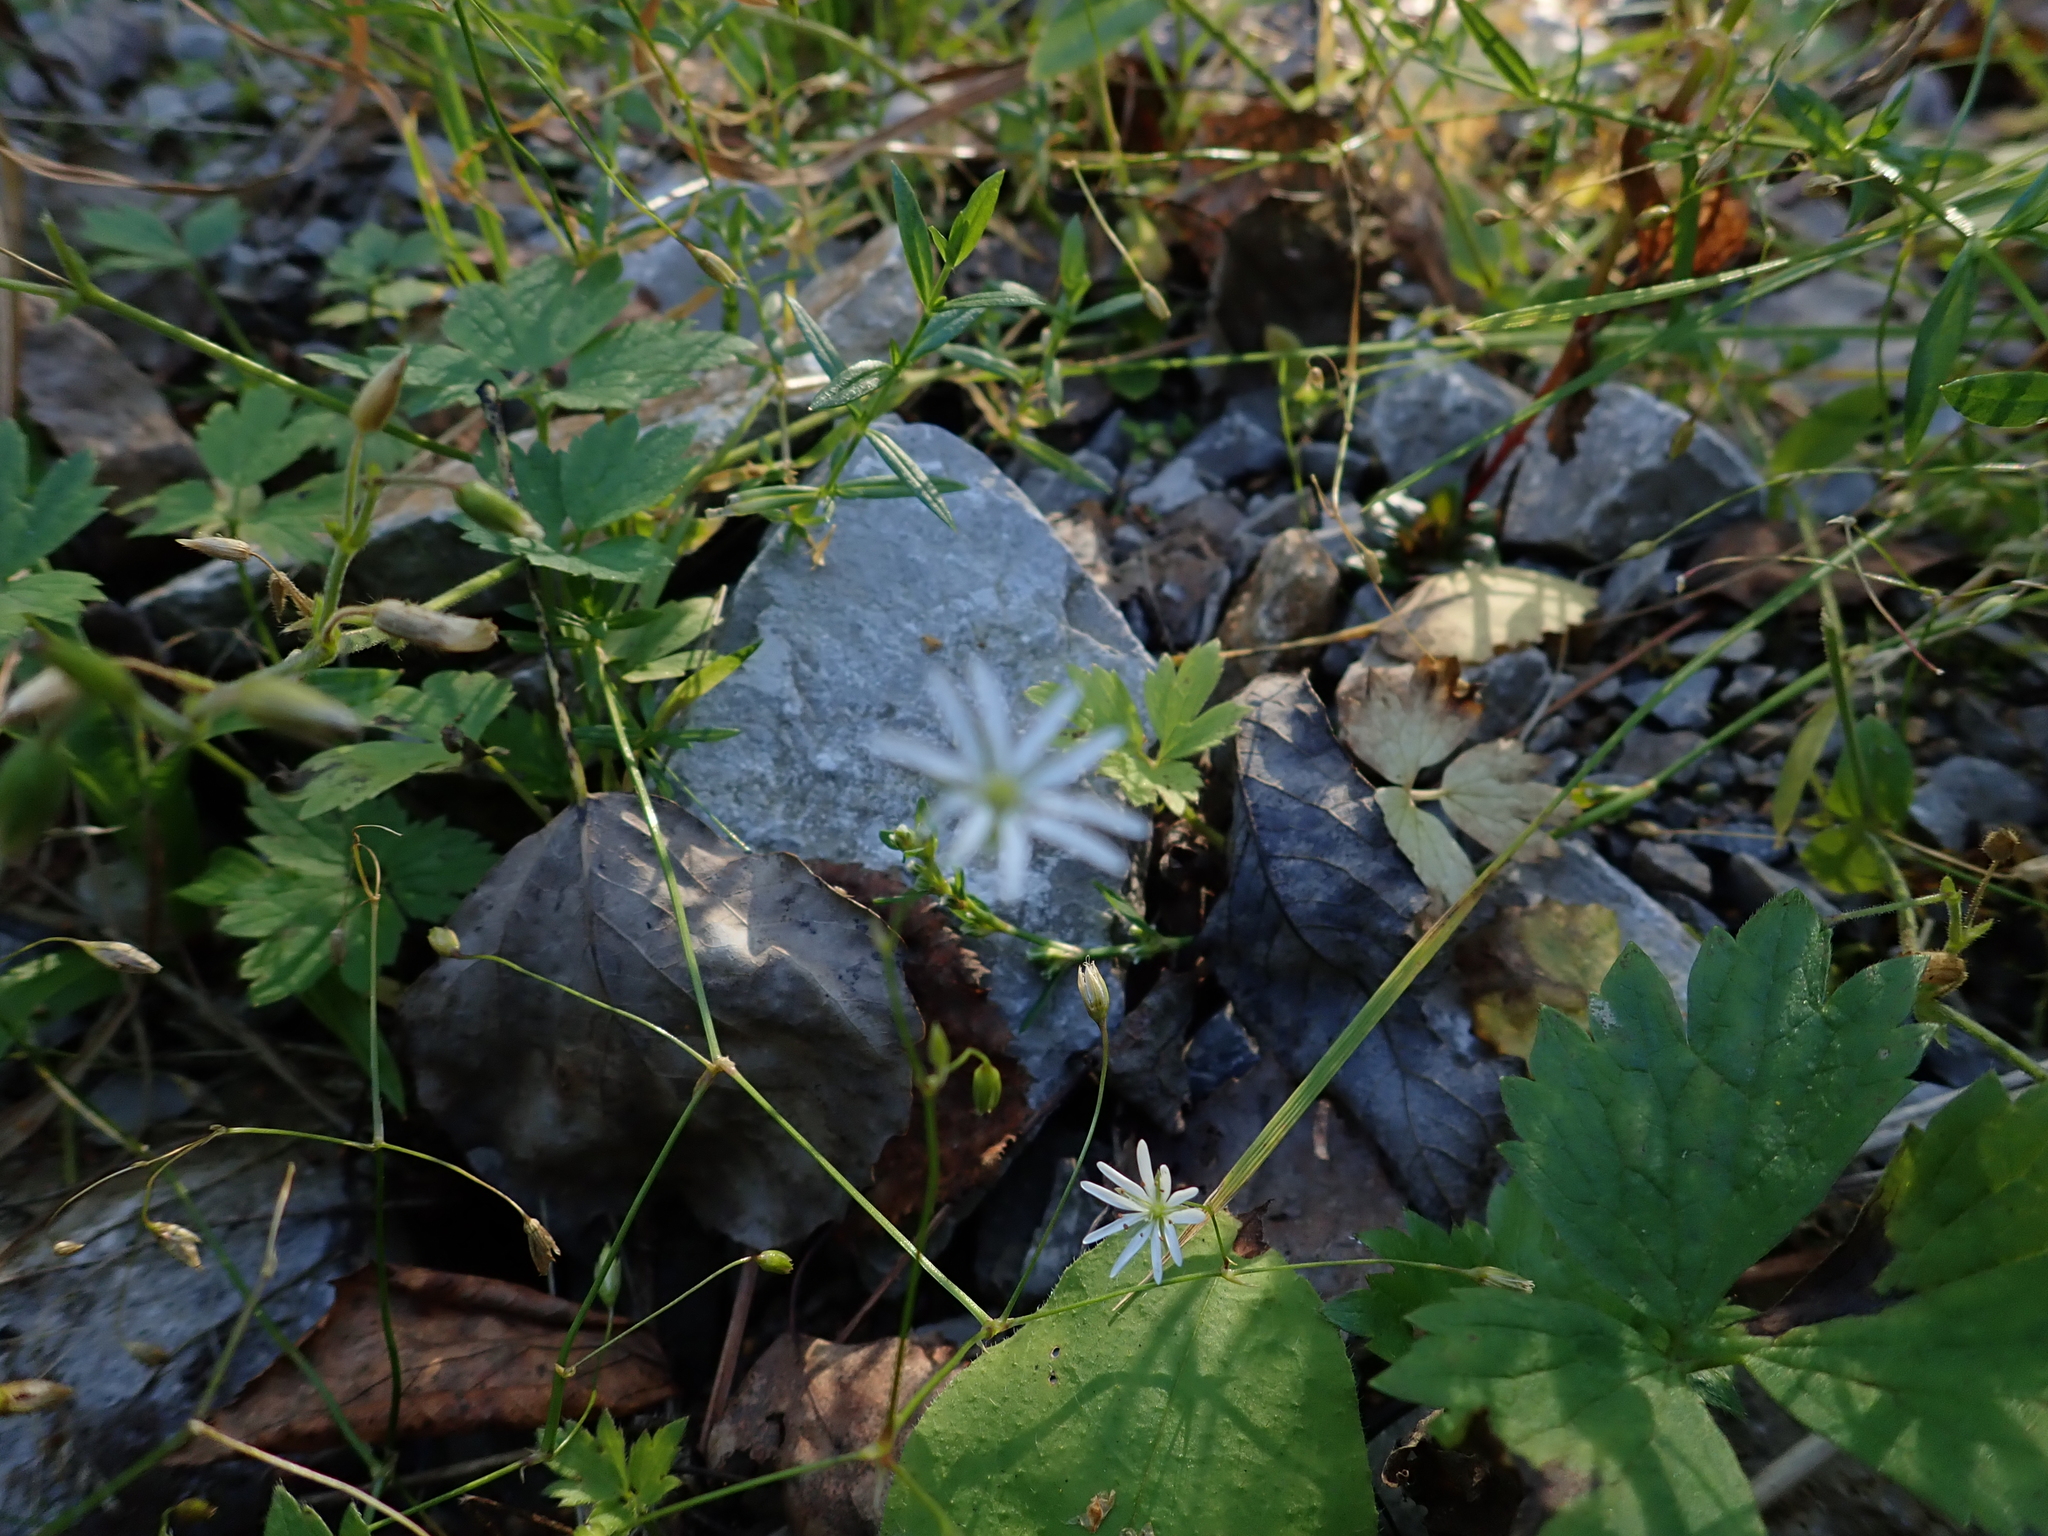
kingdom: Plantae
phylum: Tracheophyta
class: Magnoliopsida
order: Caryophyllales
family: Caryophyllaceae
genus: Stellaria
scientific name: Stellaria graminea
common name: Grass-like starwort
